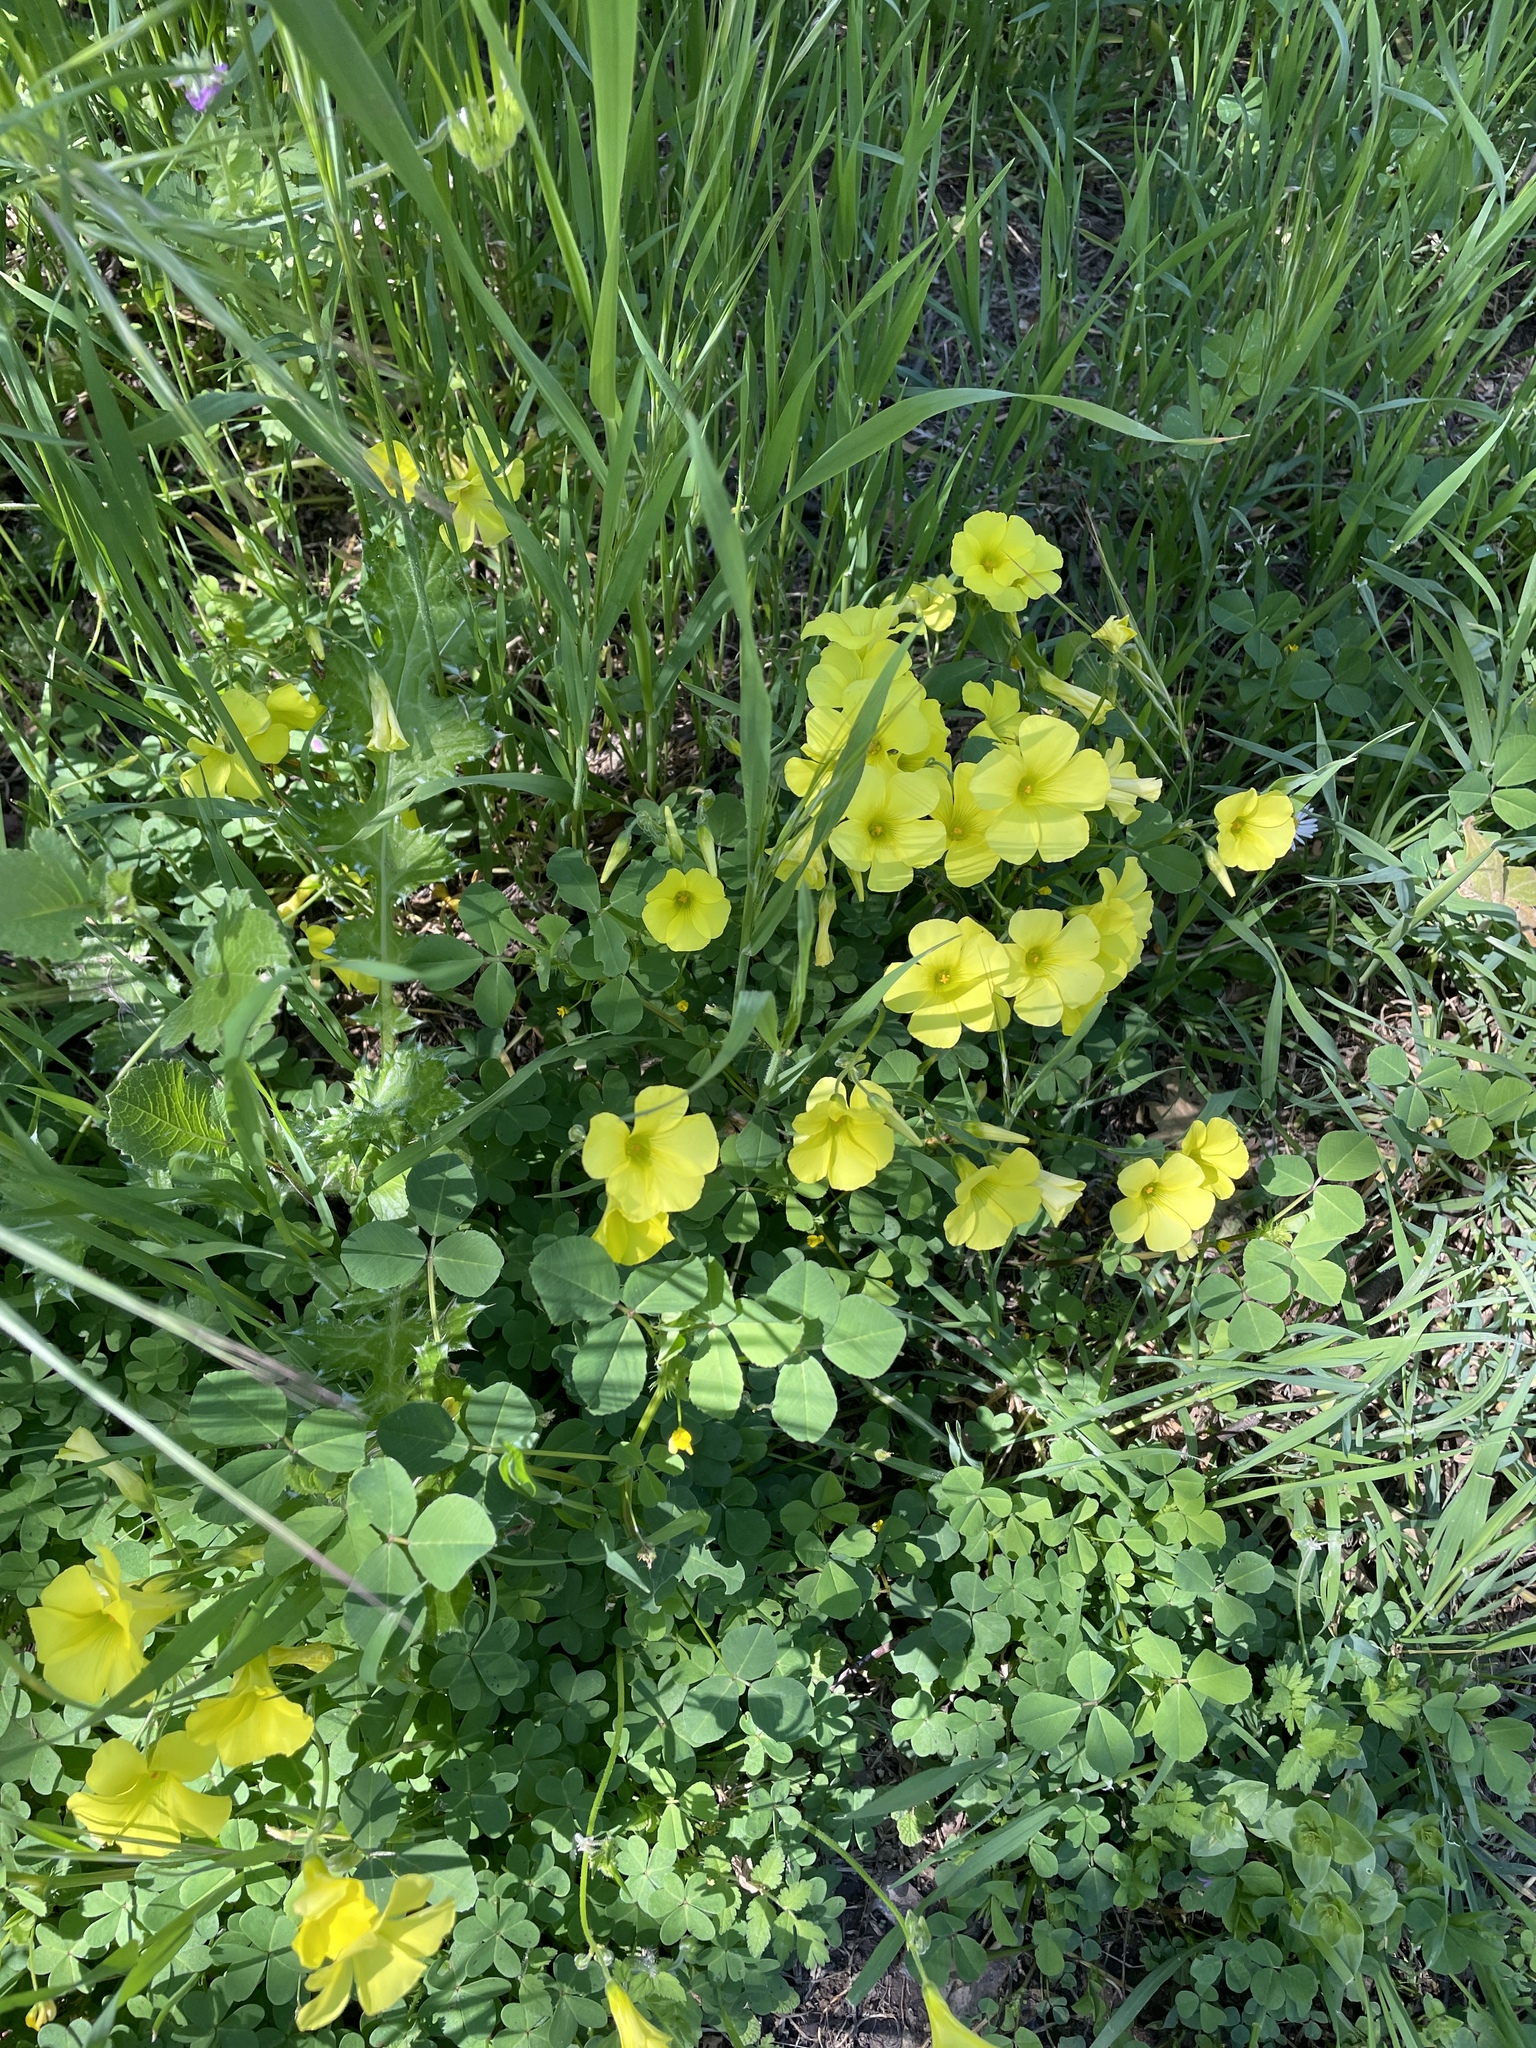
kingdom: Plantae
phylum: Tracheophyta
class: Magnoliopsida
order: Oxalidales
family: Oxalidaceae
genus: Oxalis
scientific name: Oxalis pes-caprae
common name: Bermuda-buttercup
